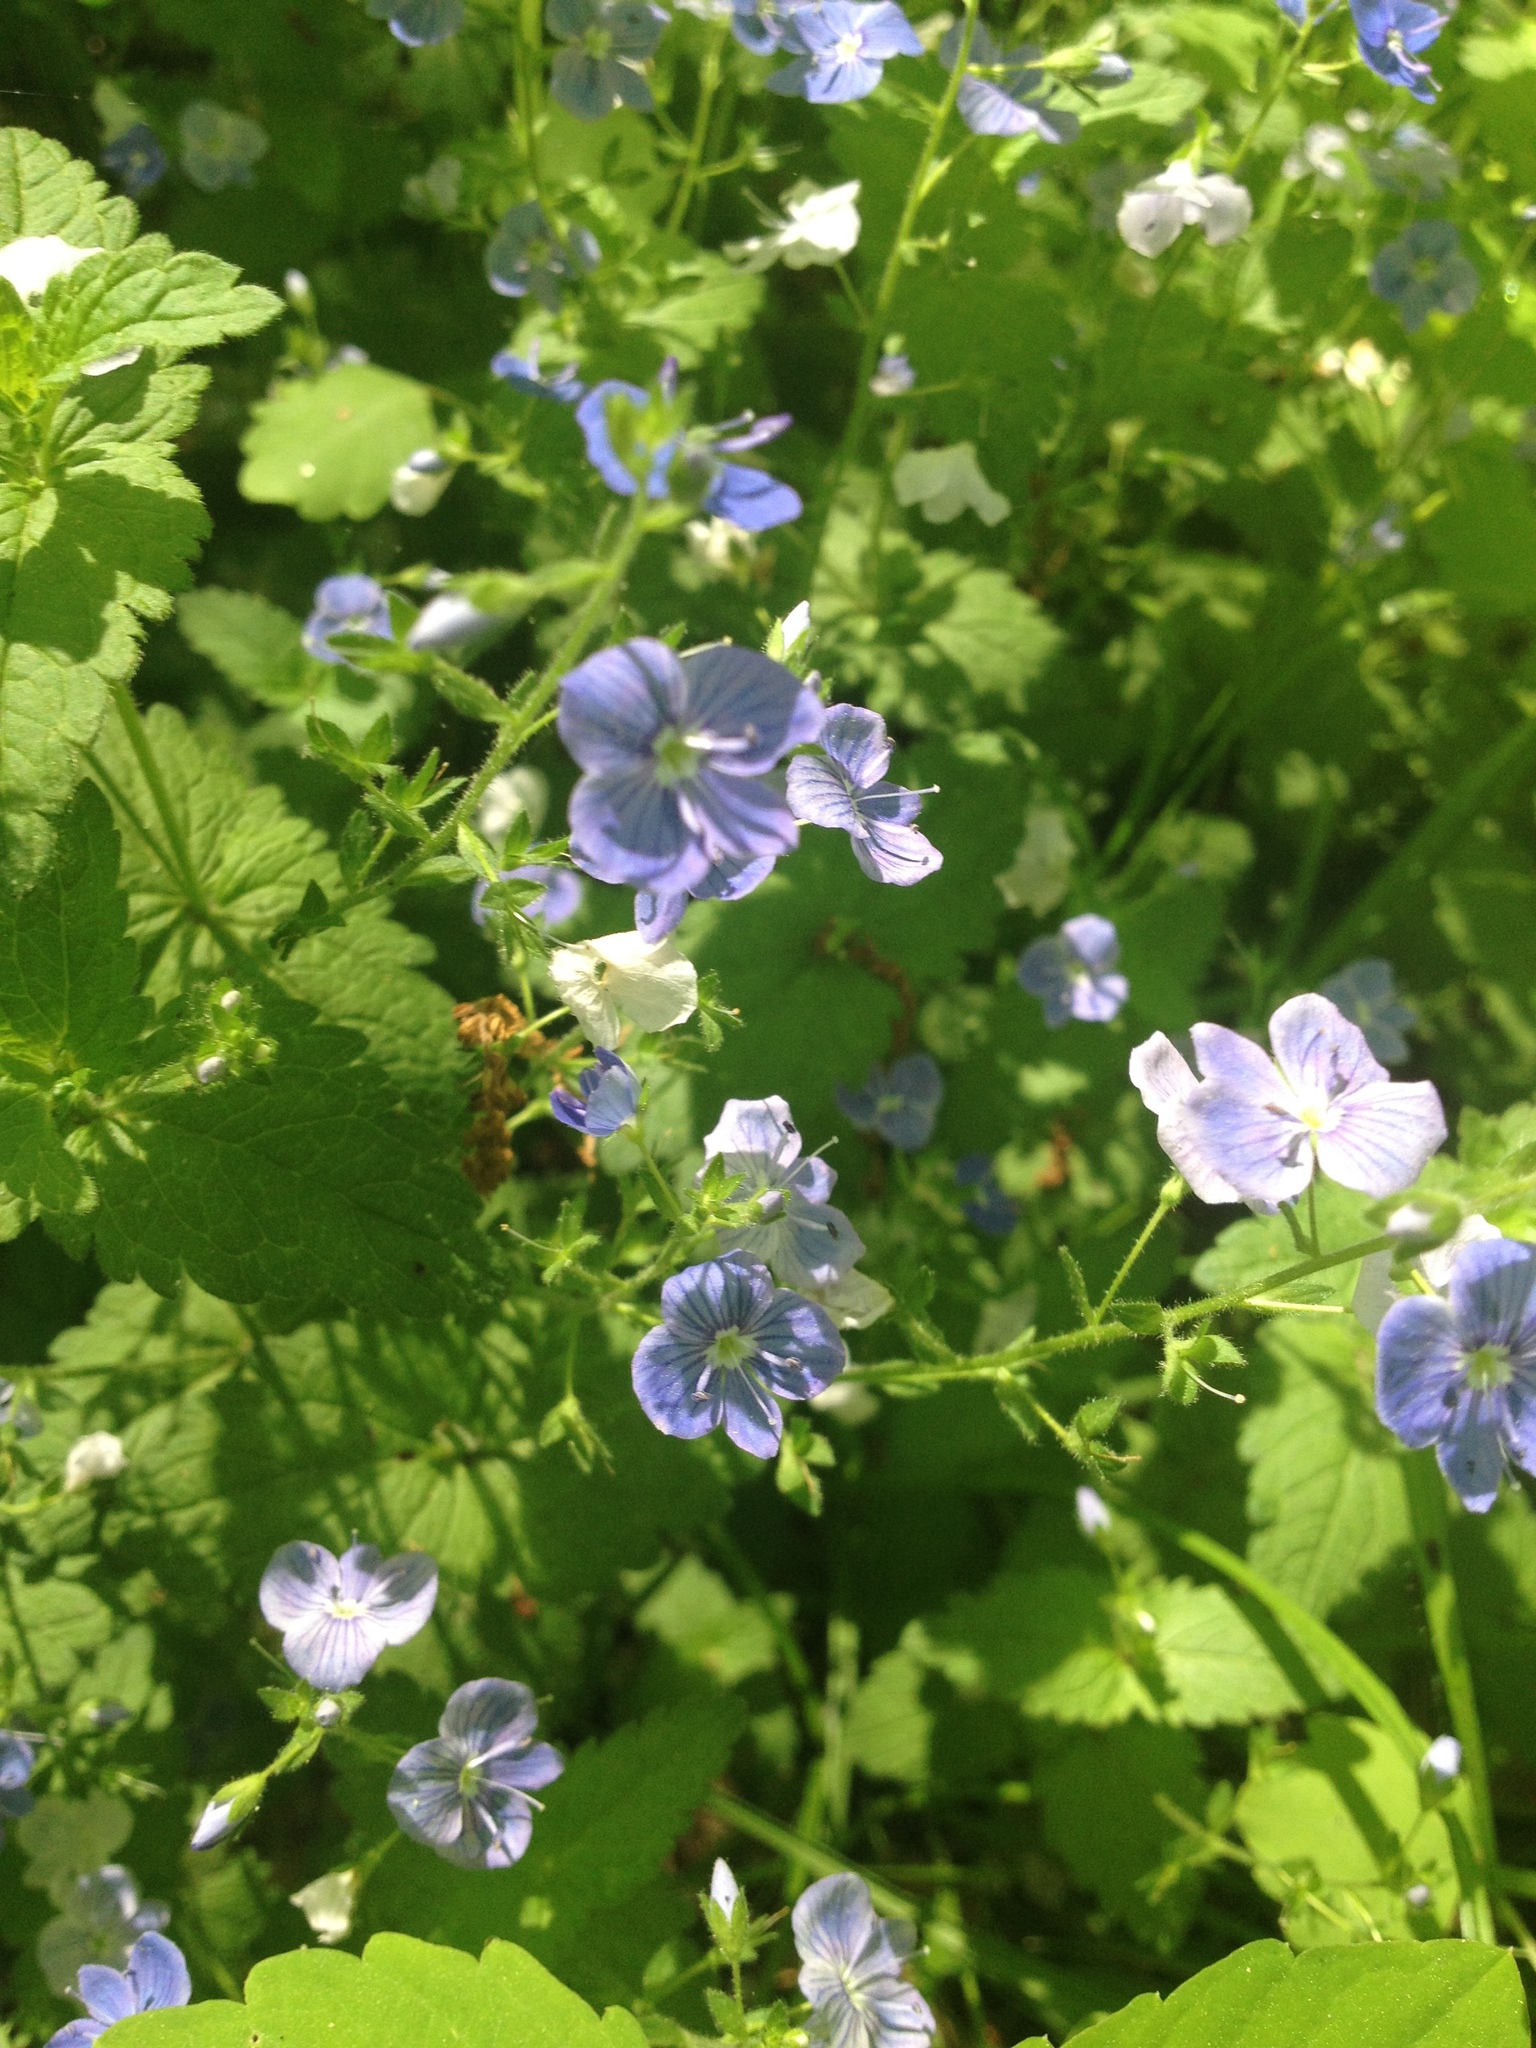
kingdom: Plantae
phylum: Tracheophyta
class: Magnoliopsida
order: Lamiales
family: Plantaginaceae
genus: Veronica
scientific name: Veronica chamaedrys
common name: Germander speedwell
